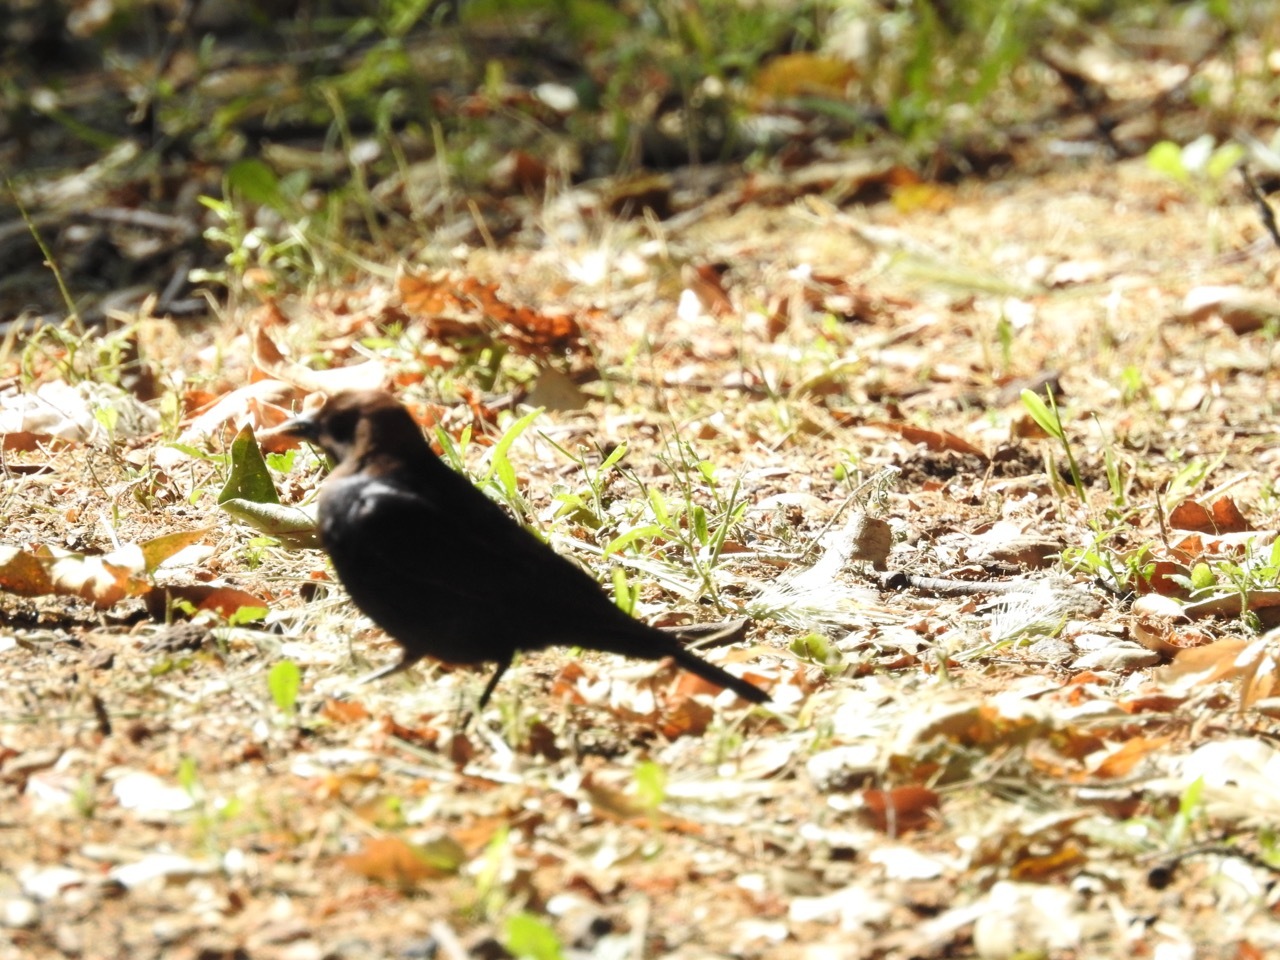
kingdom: Animalia
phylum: Chordata
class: Aves
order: Passeriformes
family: Icteridae
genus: Molothrus
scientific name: Molothrus ater
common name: Brown-headed cowbird
